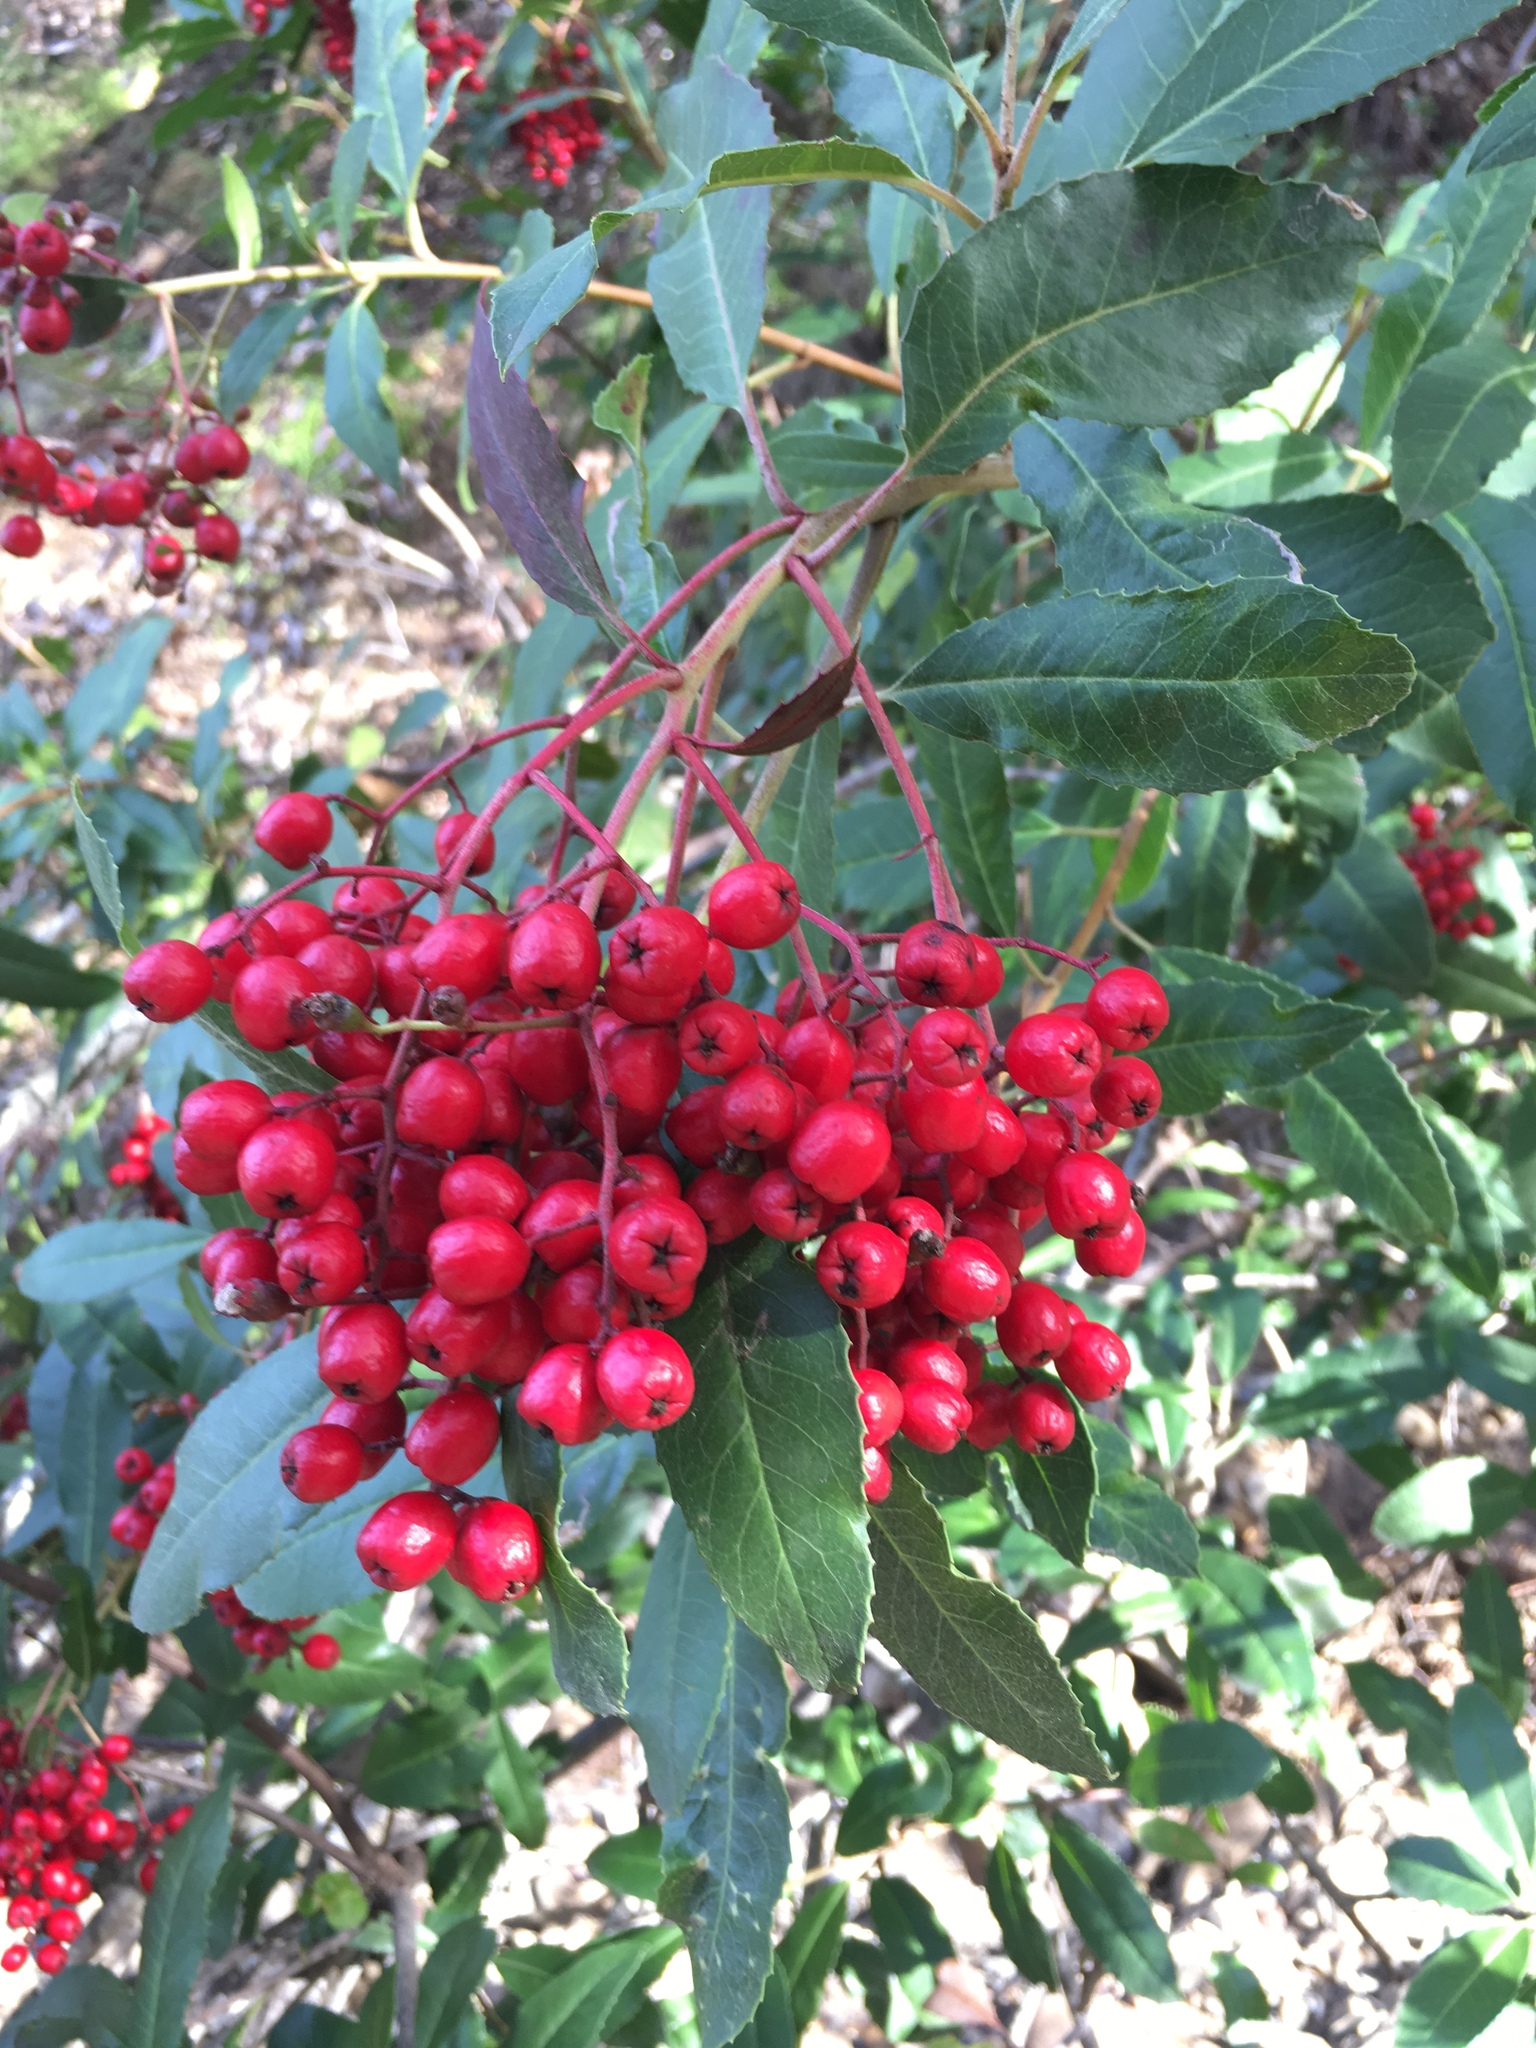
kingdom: Plantae
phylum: Tracheophyta
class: Magnoliopsida
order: Rosales
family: Rosaceae
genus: Heteromeles
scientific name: Heteromeles arbutifolia
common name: California-holly
